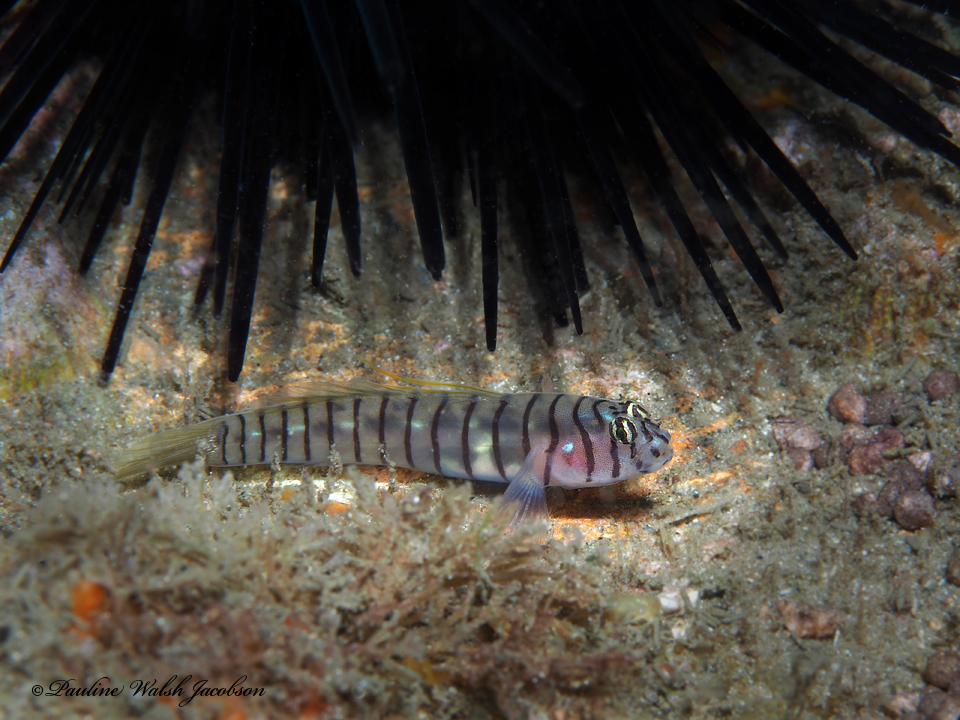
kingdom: Animalia
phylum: Chordata
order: Perciformes
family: Gobiidae
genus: Tigrigobius
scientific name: Tigrigobius macrodon
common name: Tiger goby
